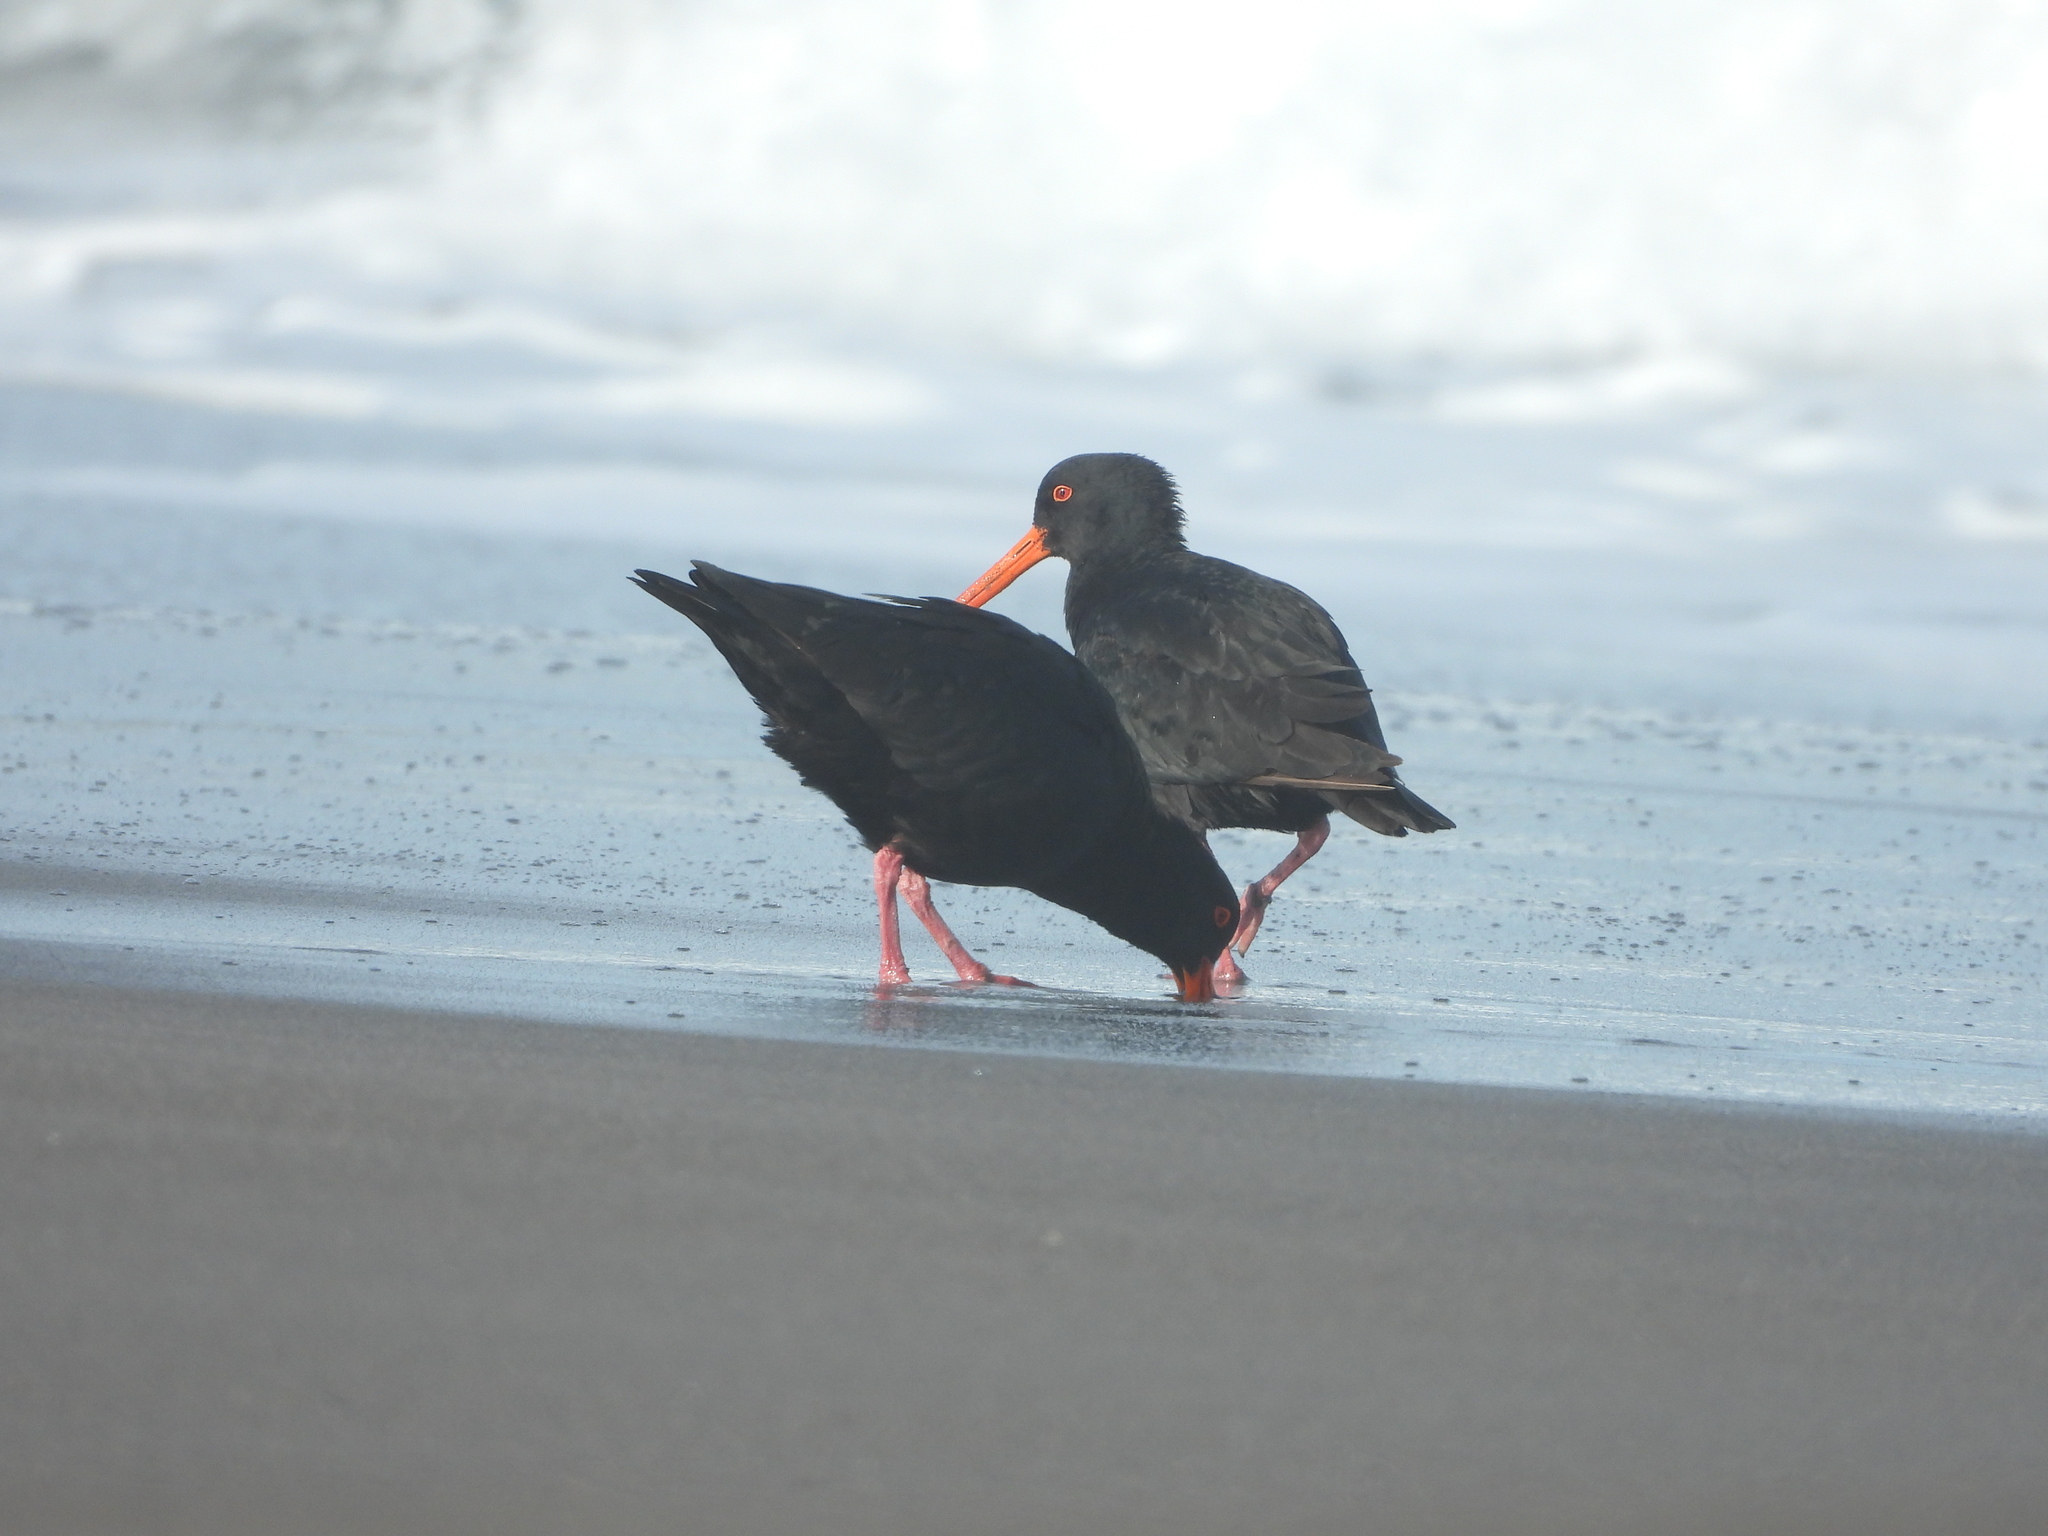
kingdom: Animalia
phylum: Chordata
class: Aves
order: Charadriiformes
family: Haematopodidae
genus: Haematopus
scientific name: Haematopus unicolor
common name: Variable oystercatcher
